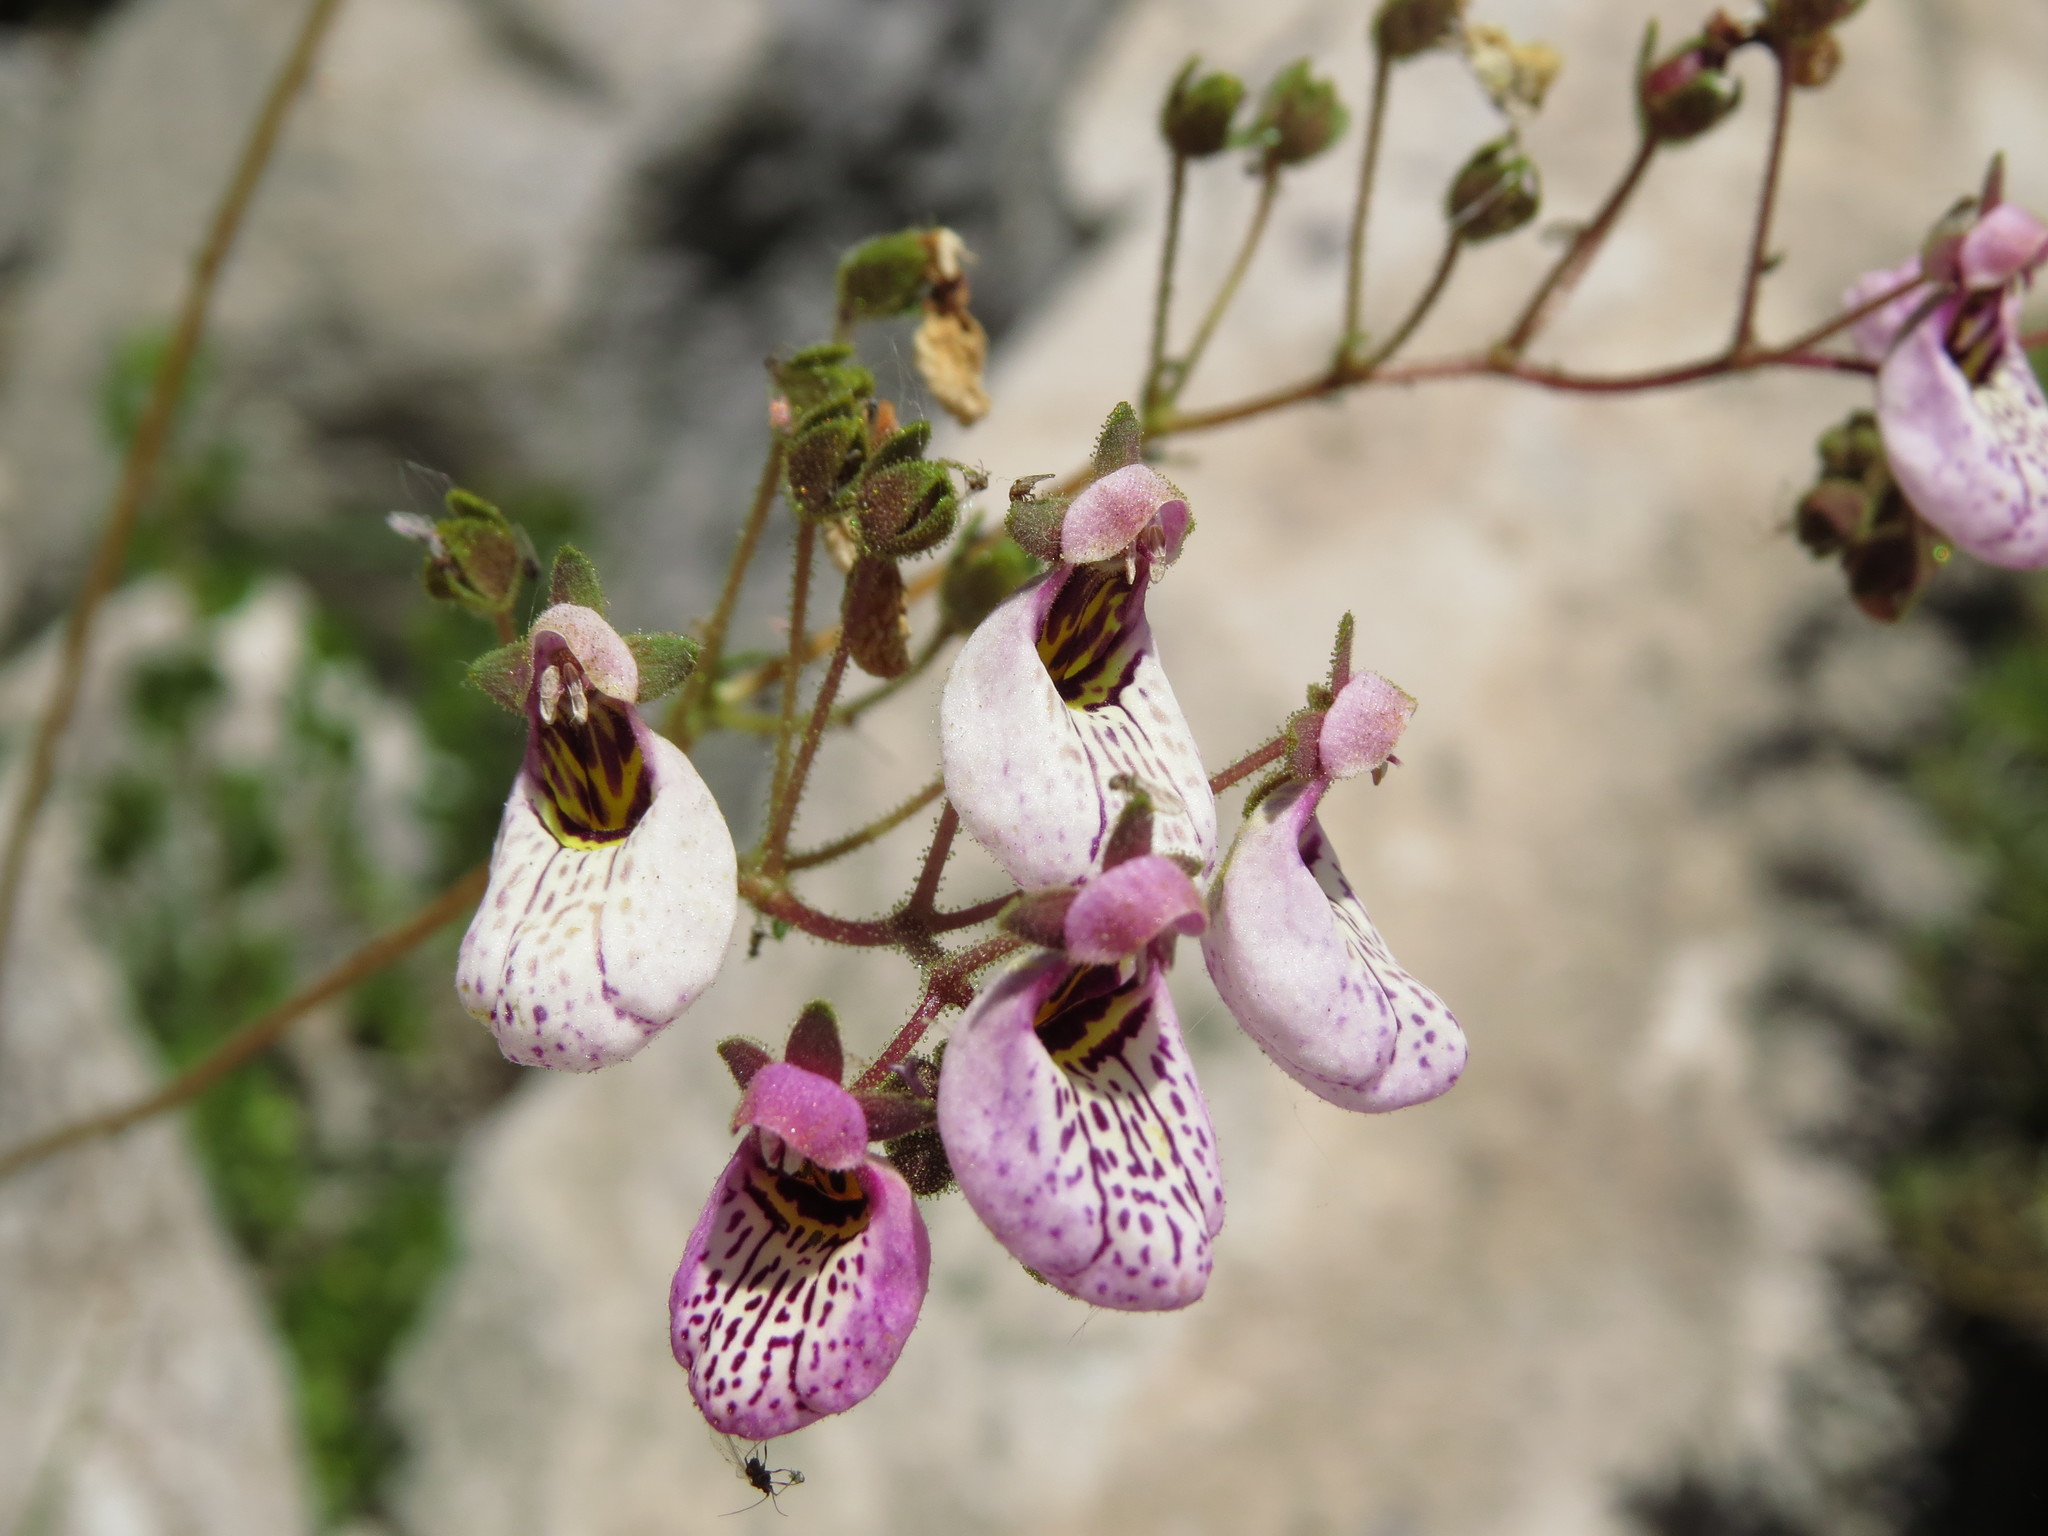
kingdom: Plantae
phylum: Tracheophyta
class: Magnoliopsida
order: Lamiales
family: Calceolariaceae
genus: Calceolaria
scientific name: Calceolaria cana
